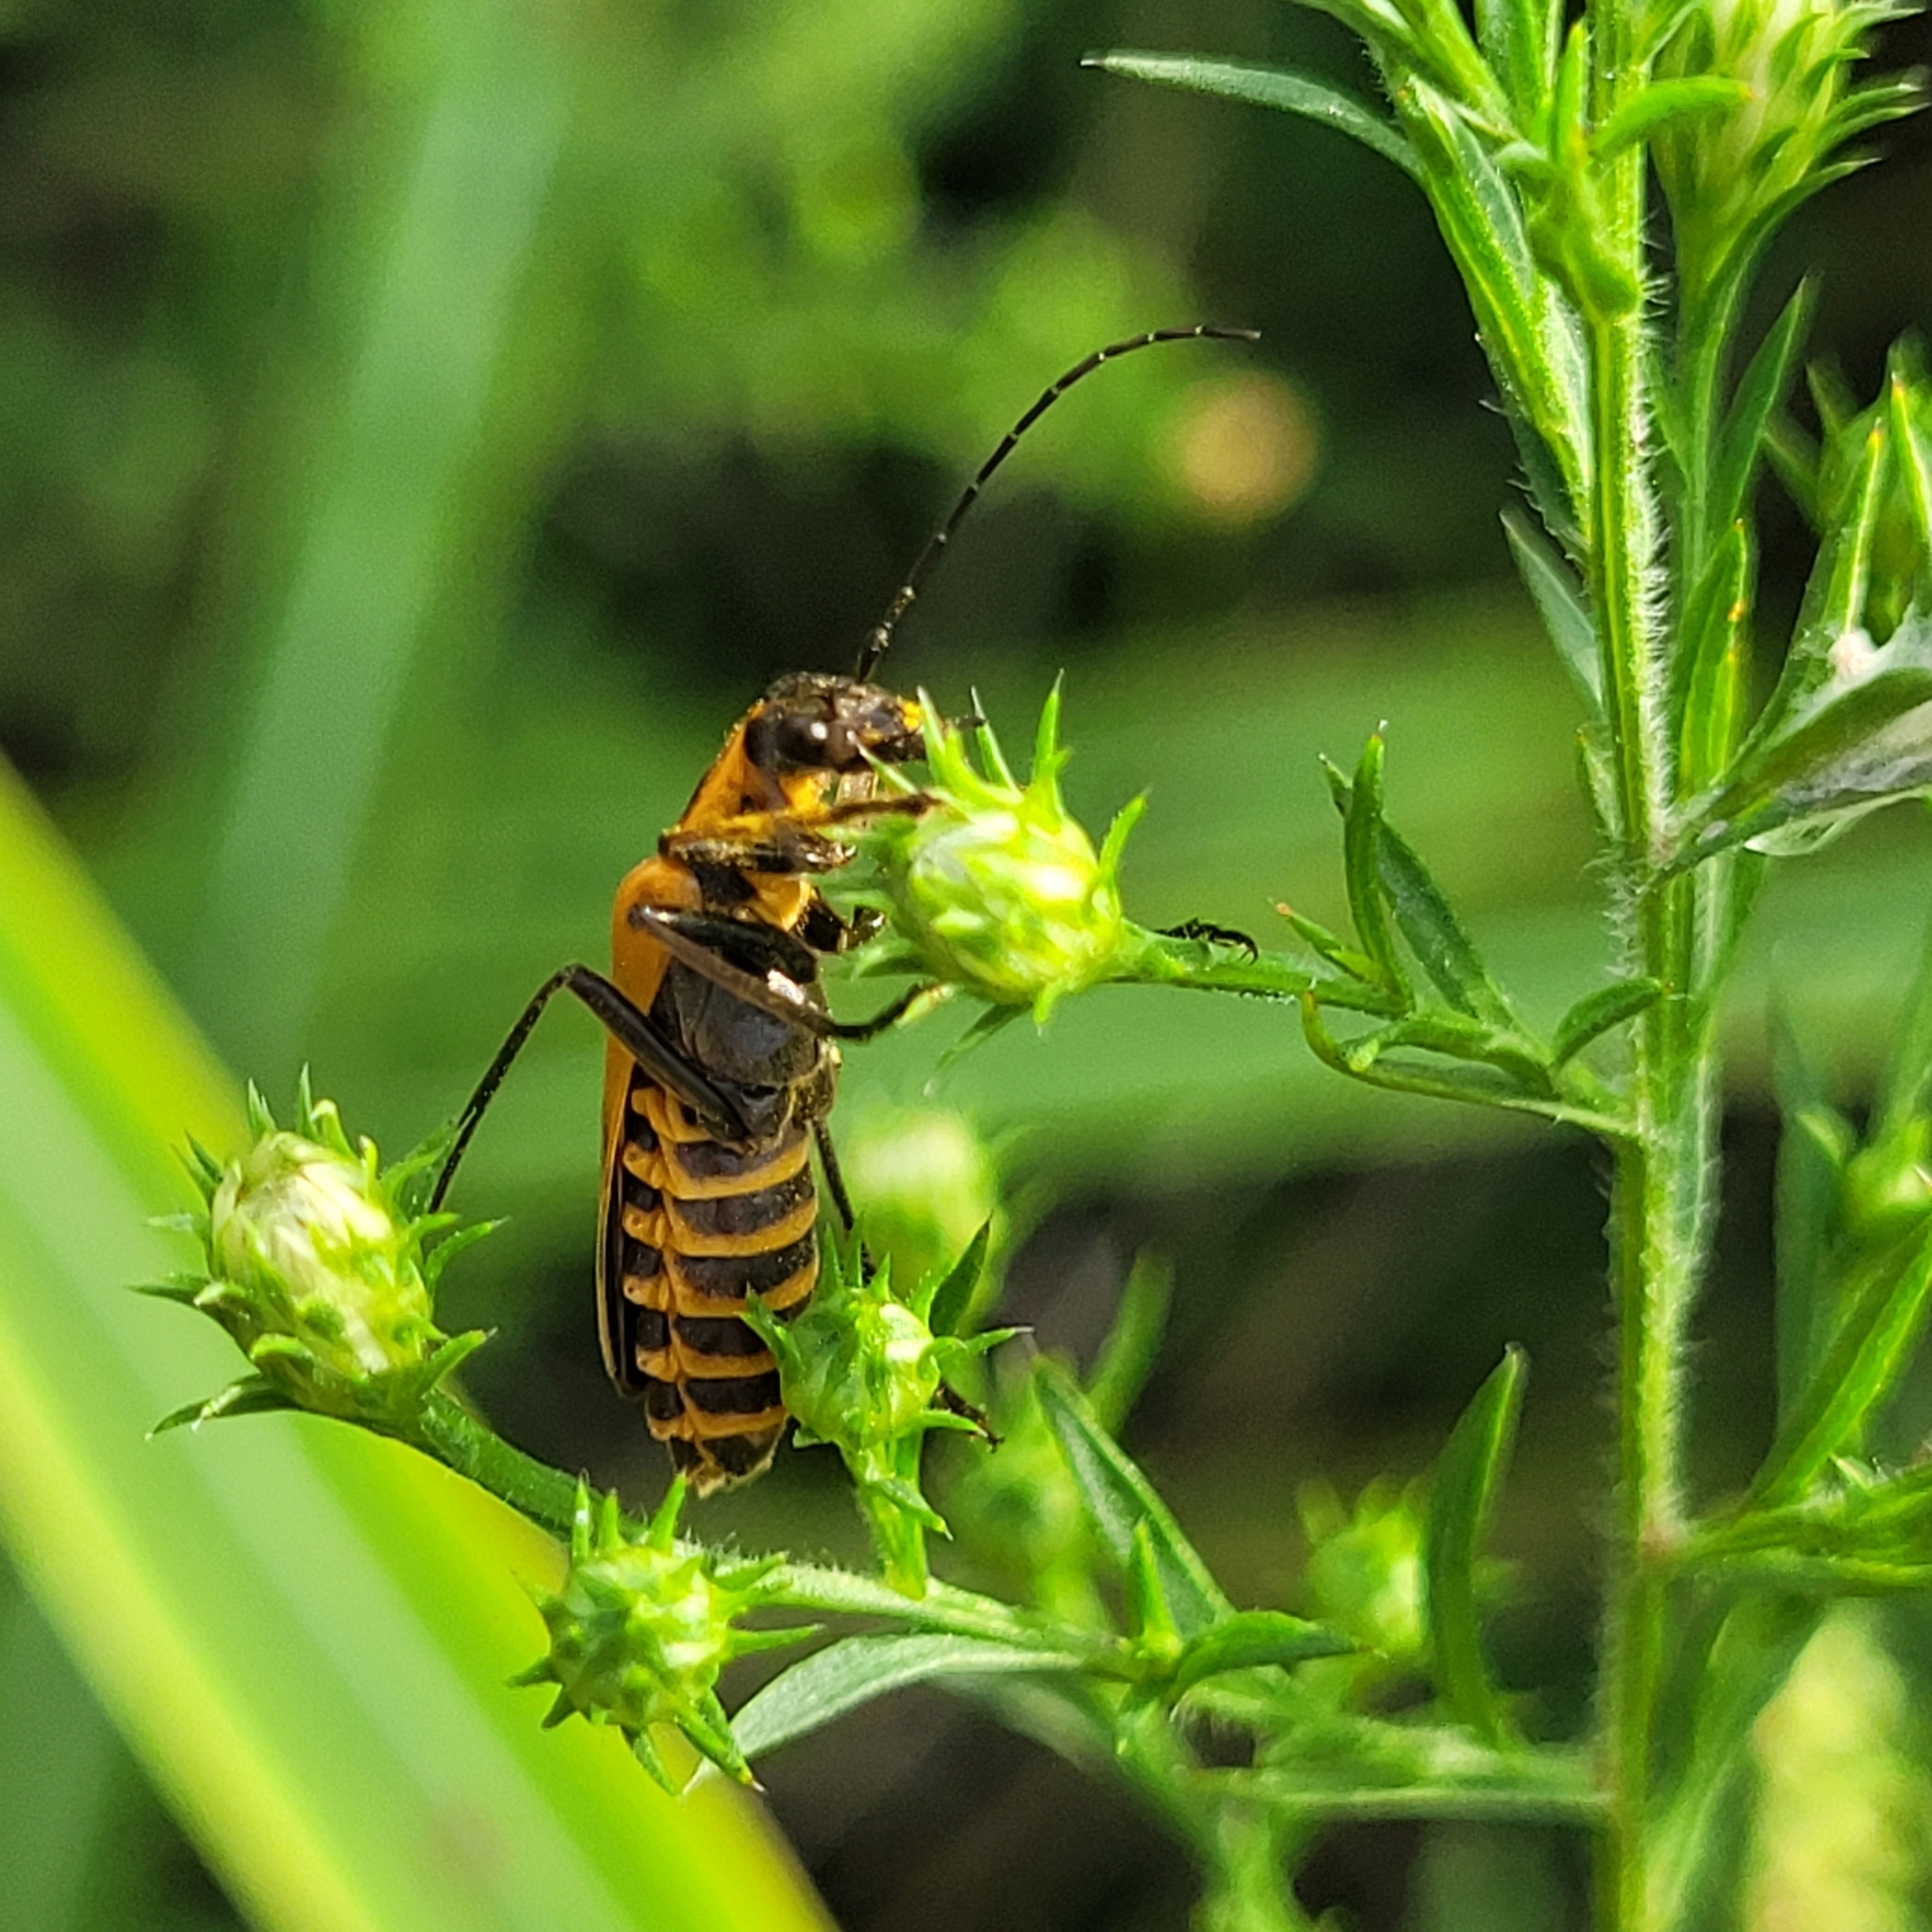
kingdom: Animalia
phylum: Arthropoda
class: Insecta
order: Coleoptera
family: Cantharidae
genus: Chauliognathus
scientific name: Chauliognathus pensylvanicus
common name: Goldenrod soldier beetle
